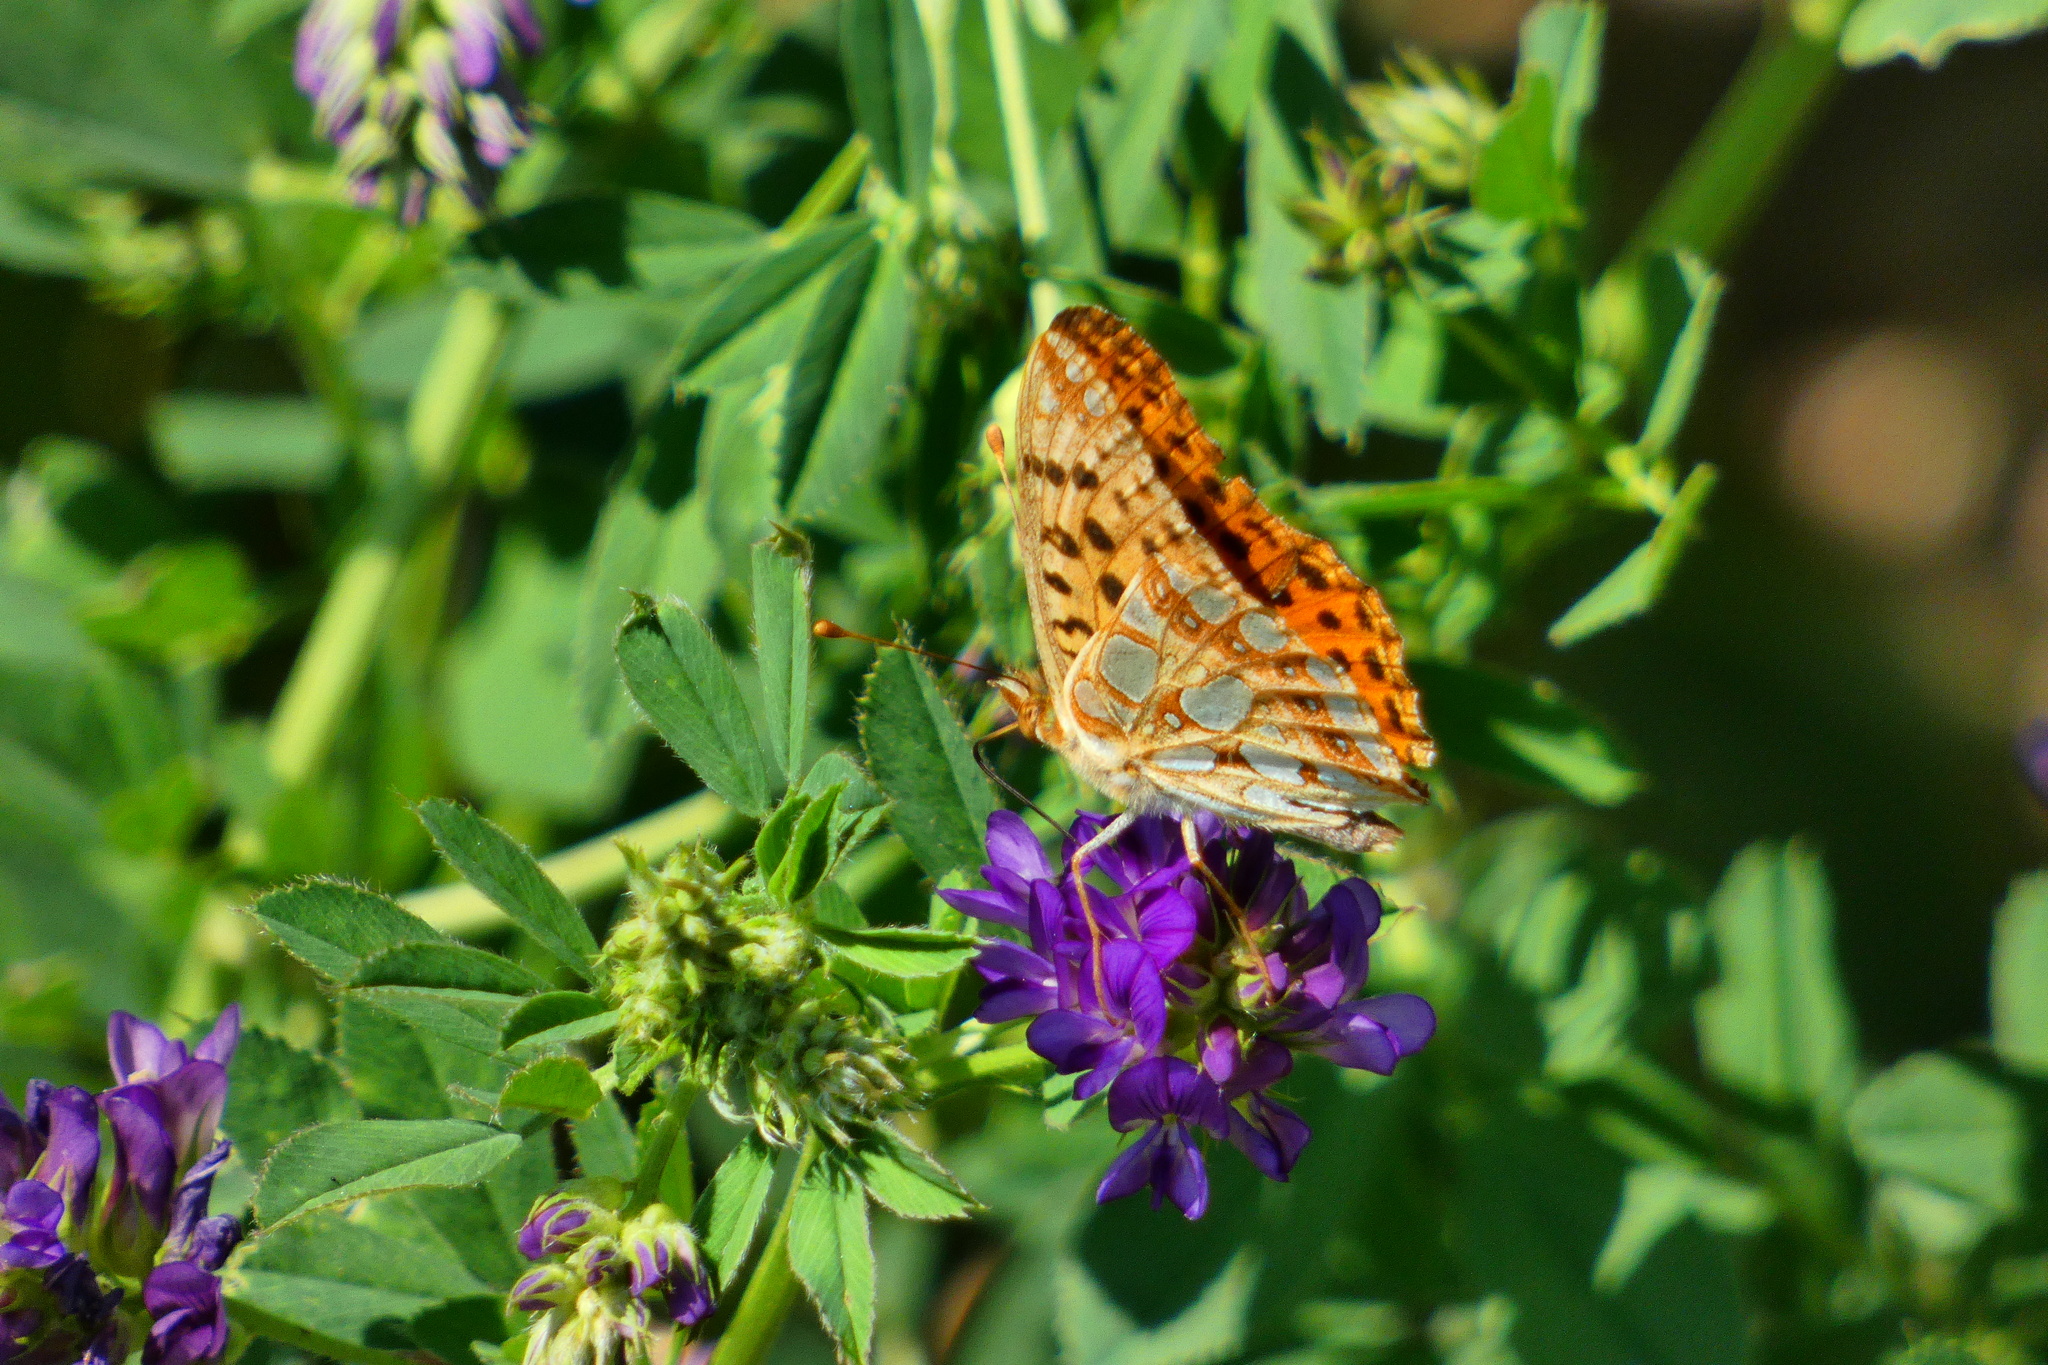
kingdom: Animalia
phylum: Arthropoda
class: Insecta
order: Lepidoptera
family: Nymphalidae
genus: Issoria
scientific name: Issoria lathonia
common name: Queen of spain fritillary
